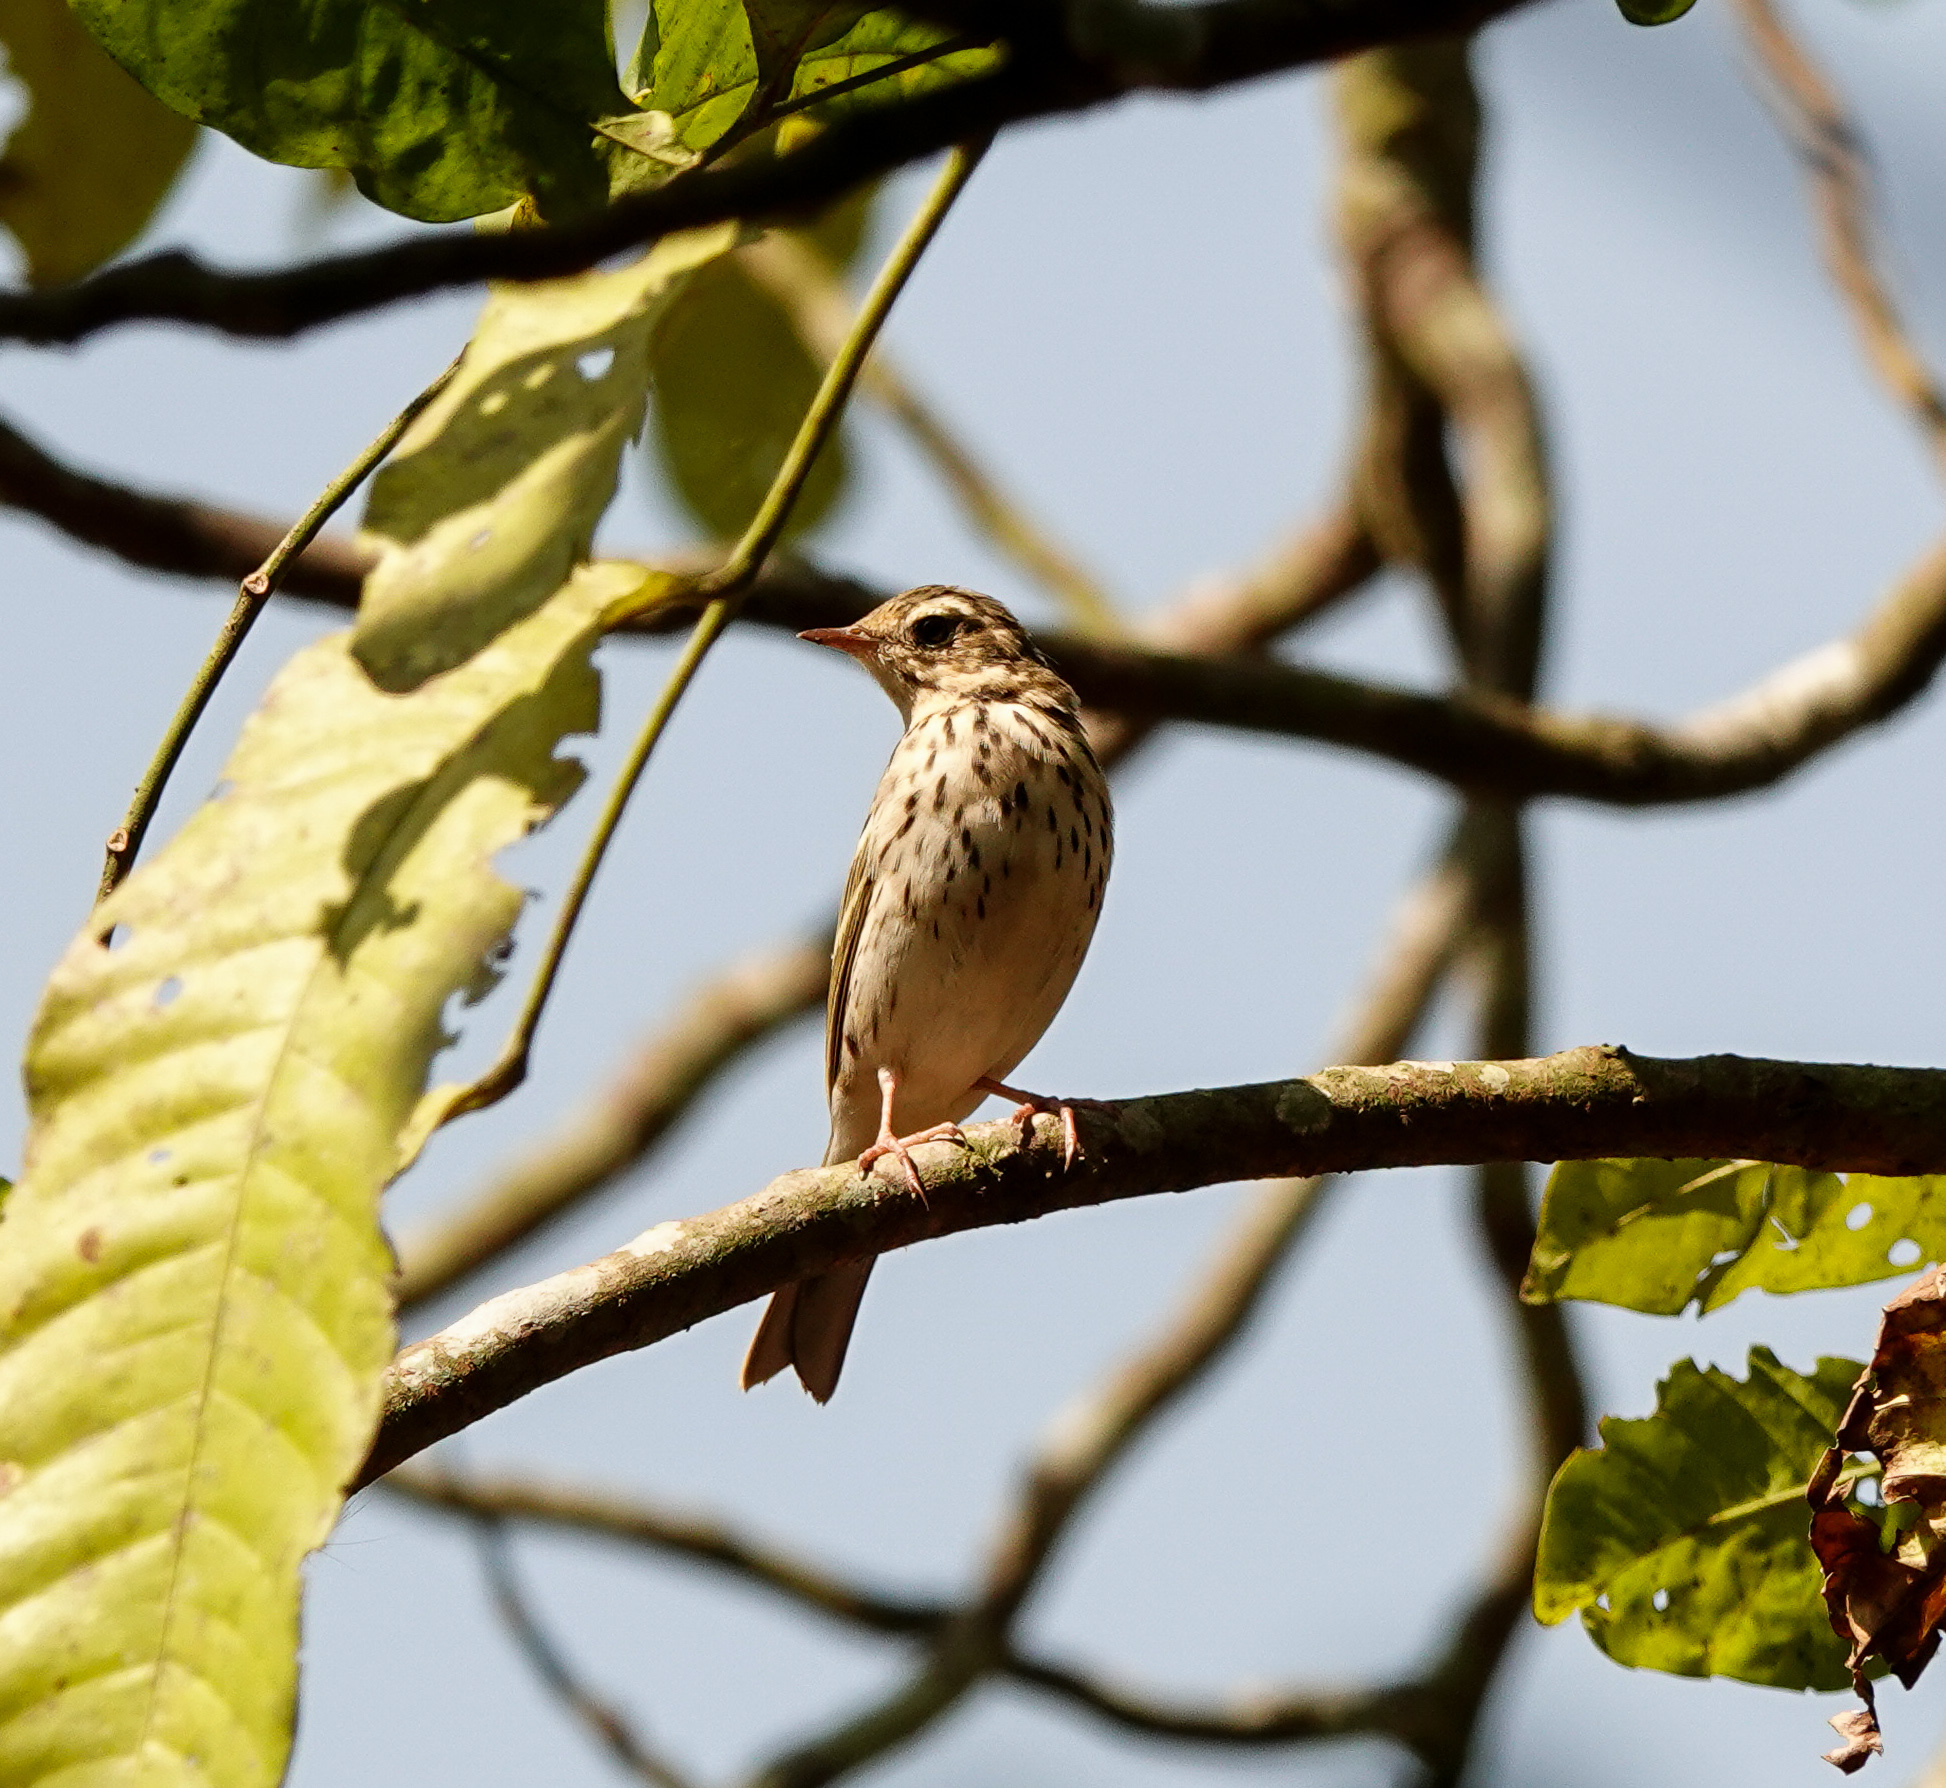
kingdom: Animalia
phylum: Chordata
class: Aves
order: Passeriformes
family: Motacillidae
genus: Anthus
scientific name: Anthus hodgsoni
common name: Olive-backed pipit
